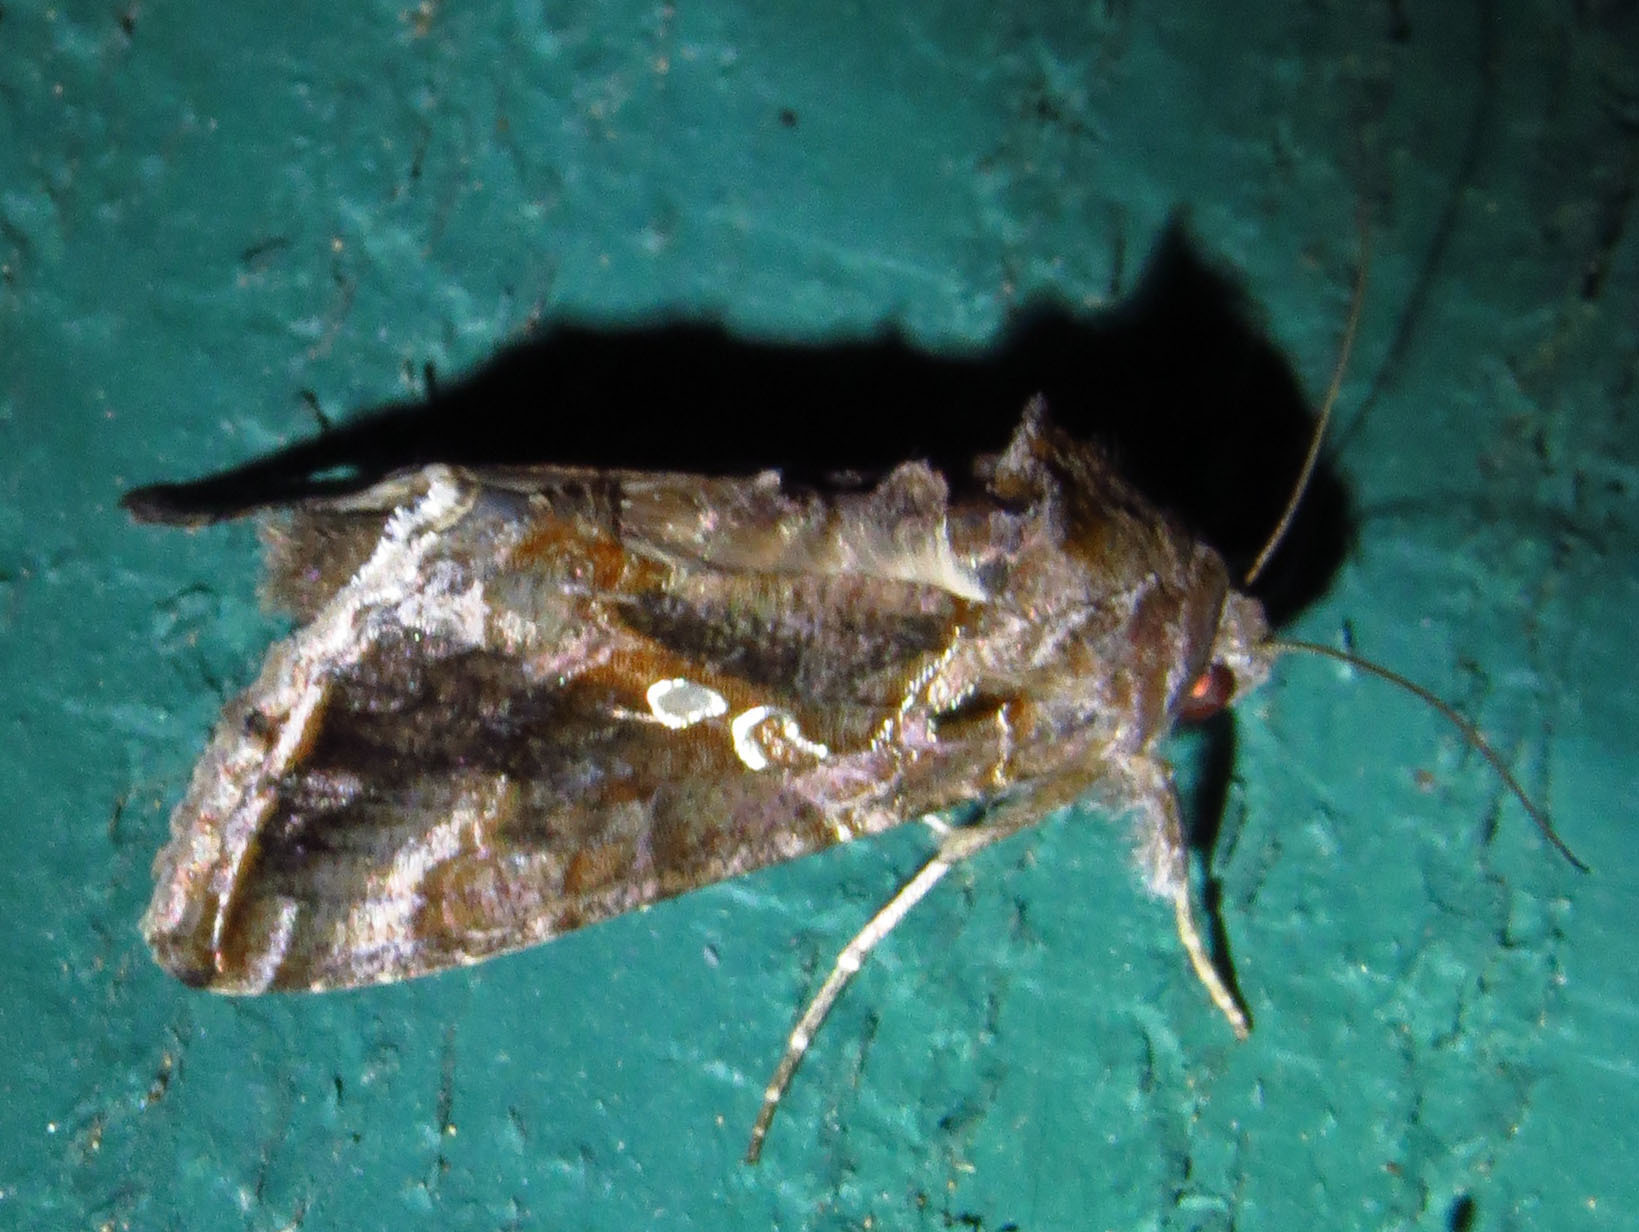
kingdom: Animalia
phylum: Arthropoda
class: Insecta
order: Lepidoptera
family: Noctuidae
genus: Chrysodeixis
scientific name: Chrysodeixis includens
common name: Cutworm moth
